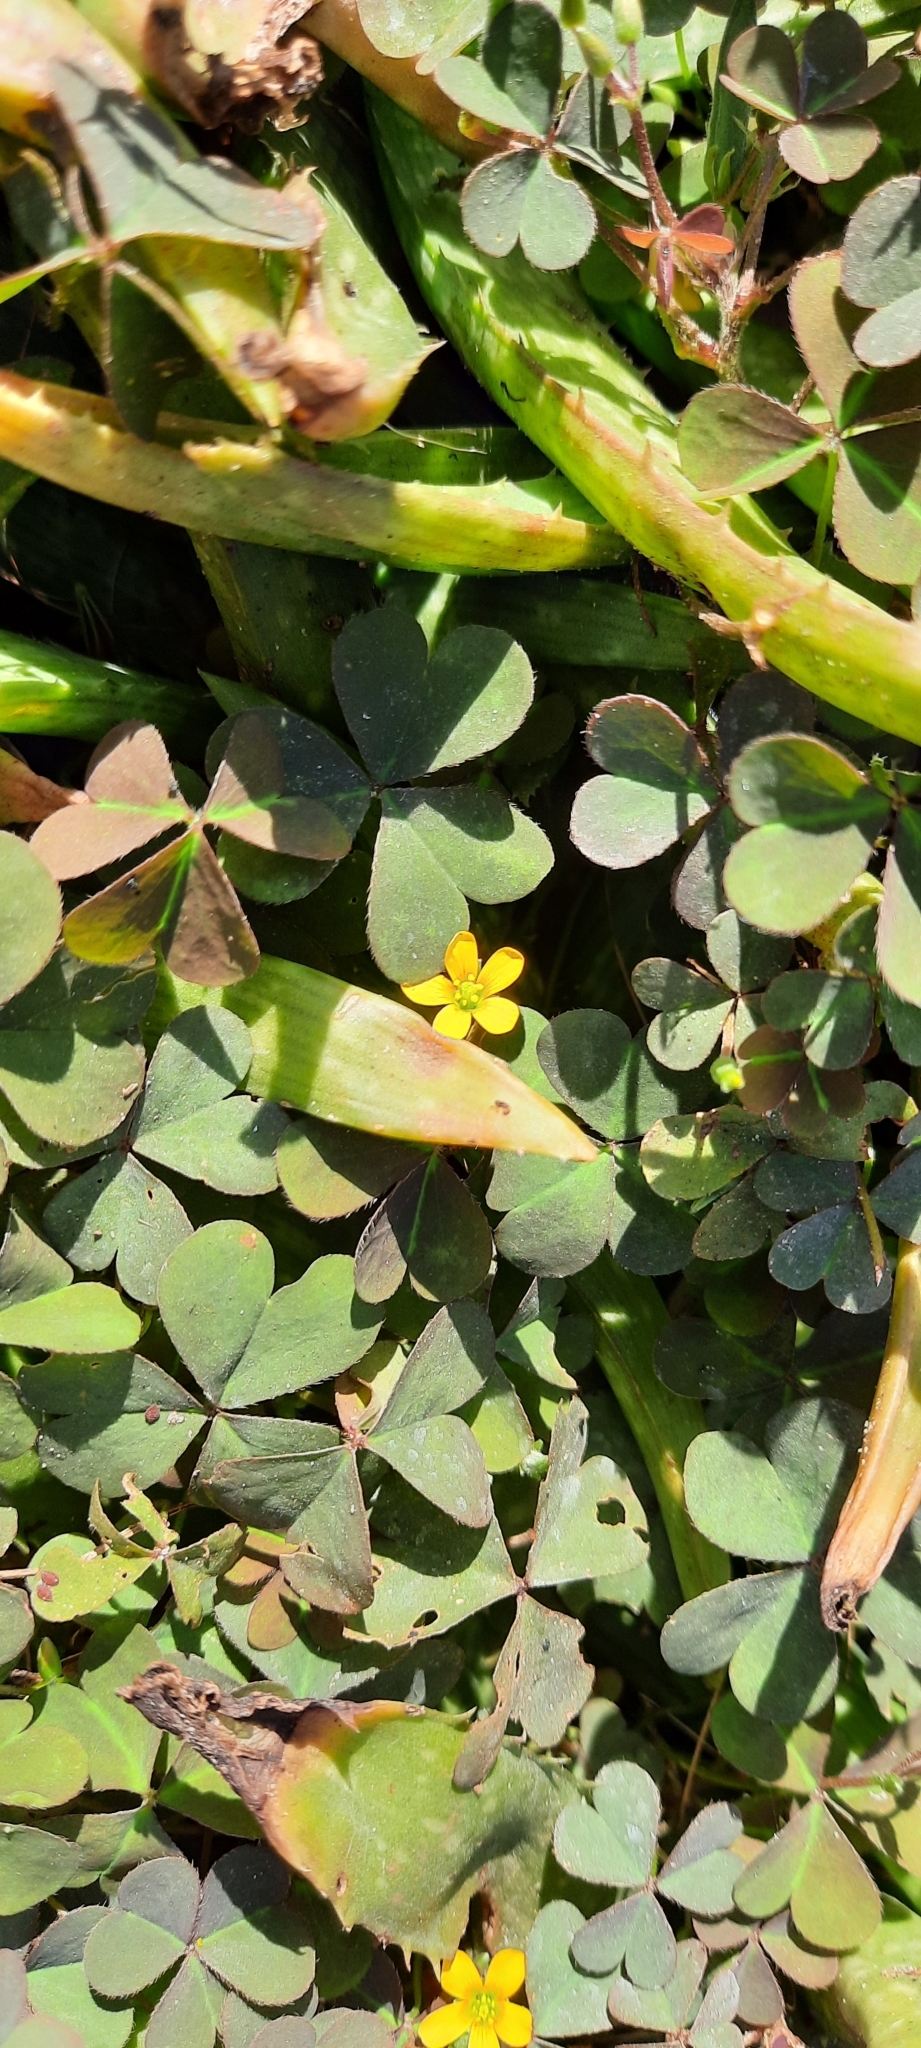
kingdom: Plantae
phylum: Tracheophyta
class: Magnoliopsida
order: Oxalidales
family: Oxalidaceae
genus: Oxalis
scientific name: Oxalis corniculata
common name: Procumbent yellow-sorrel
